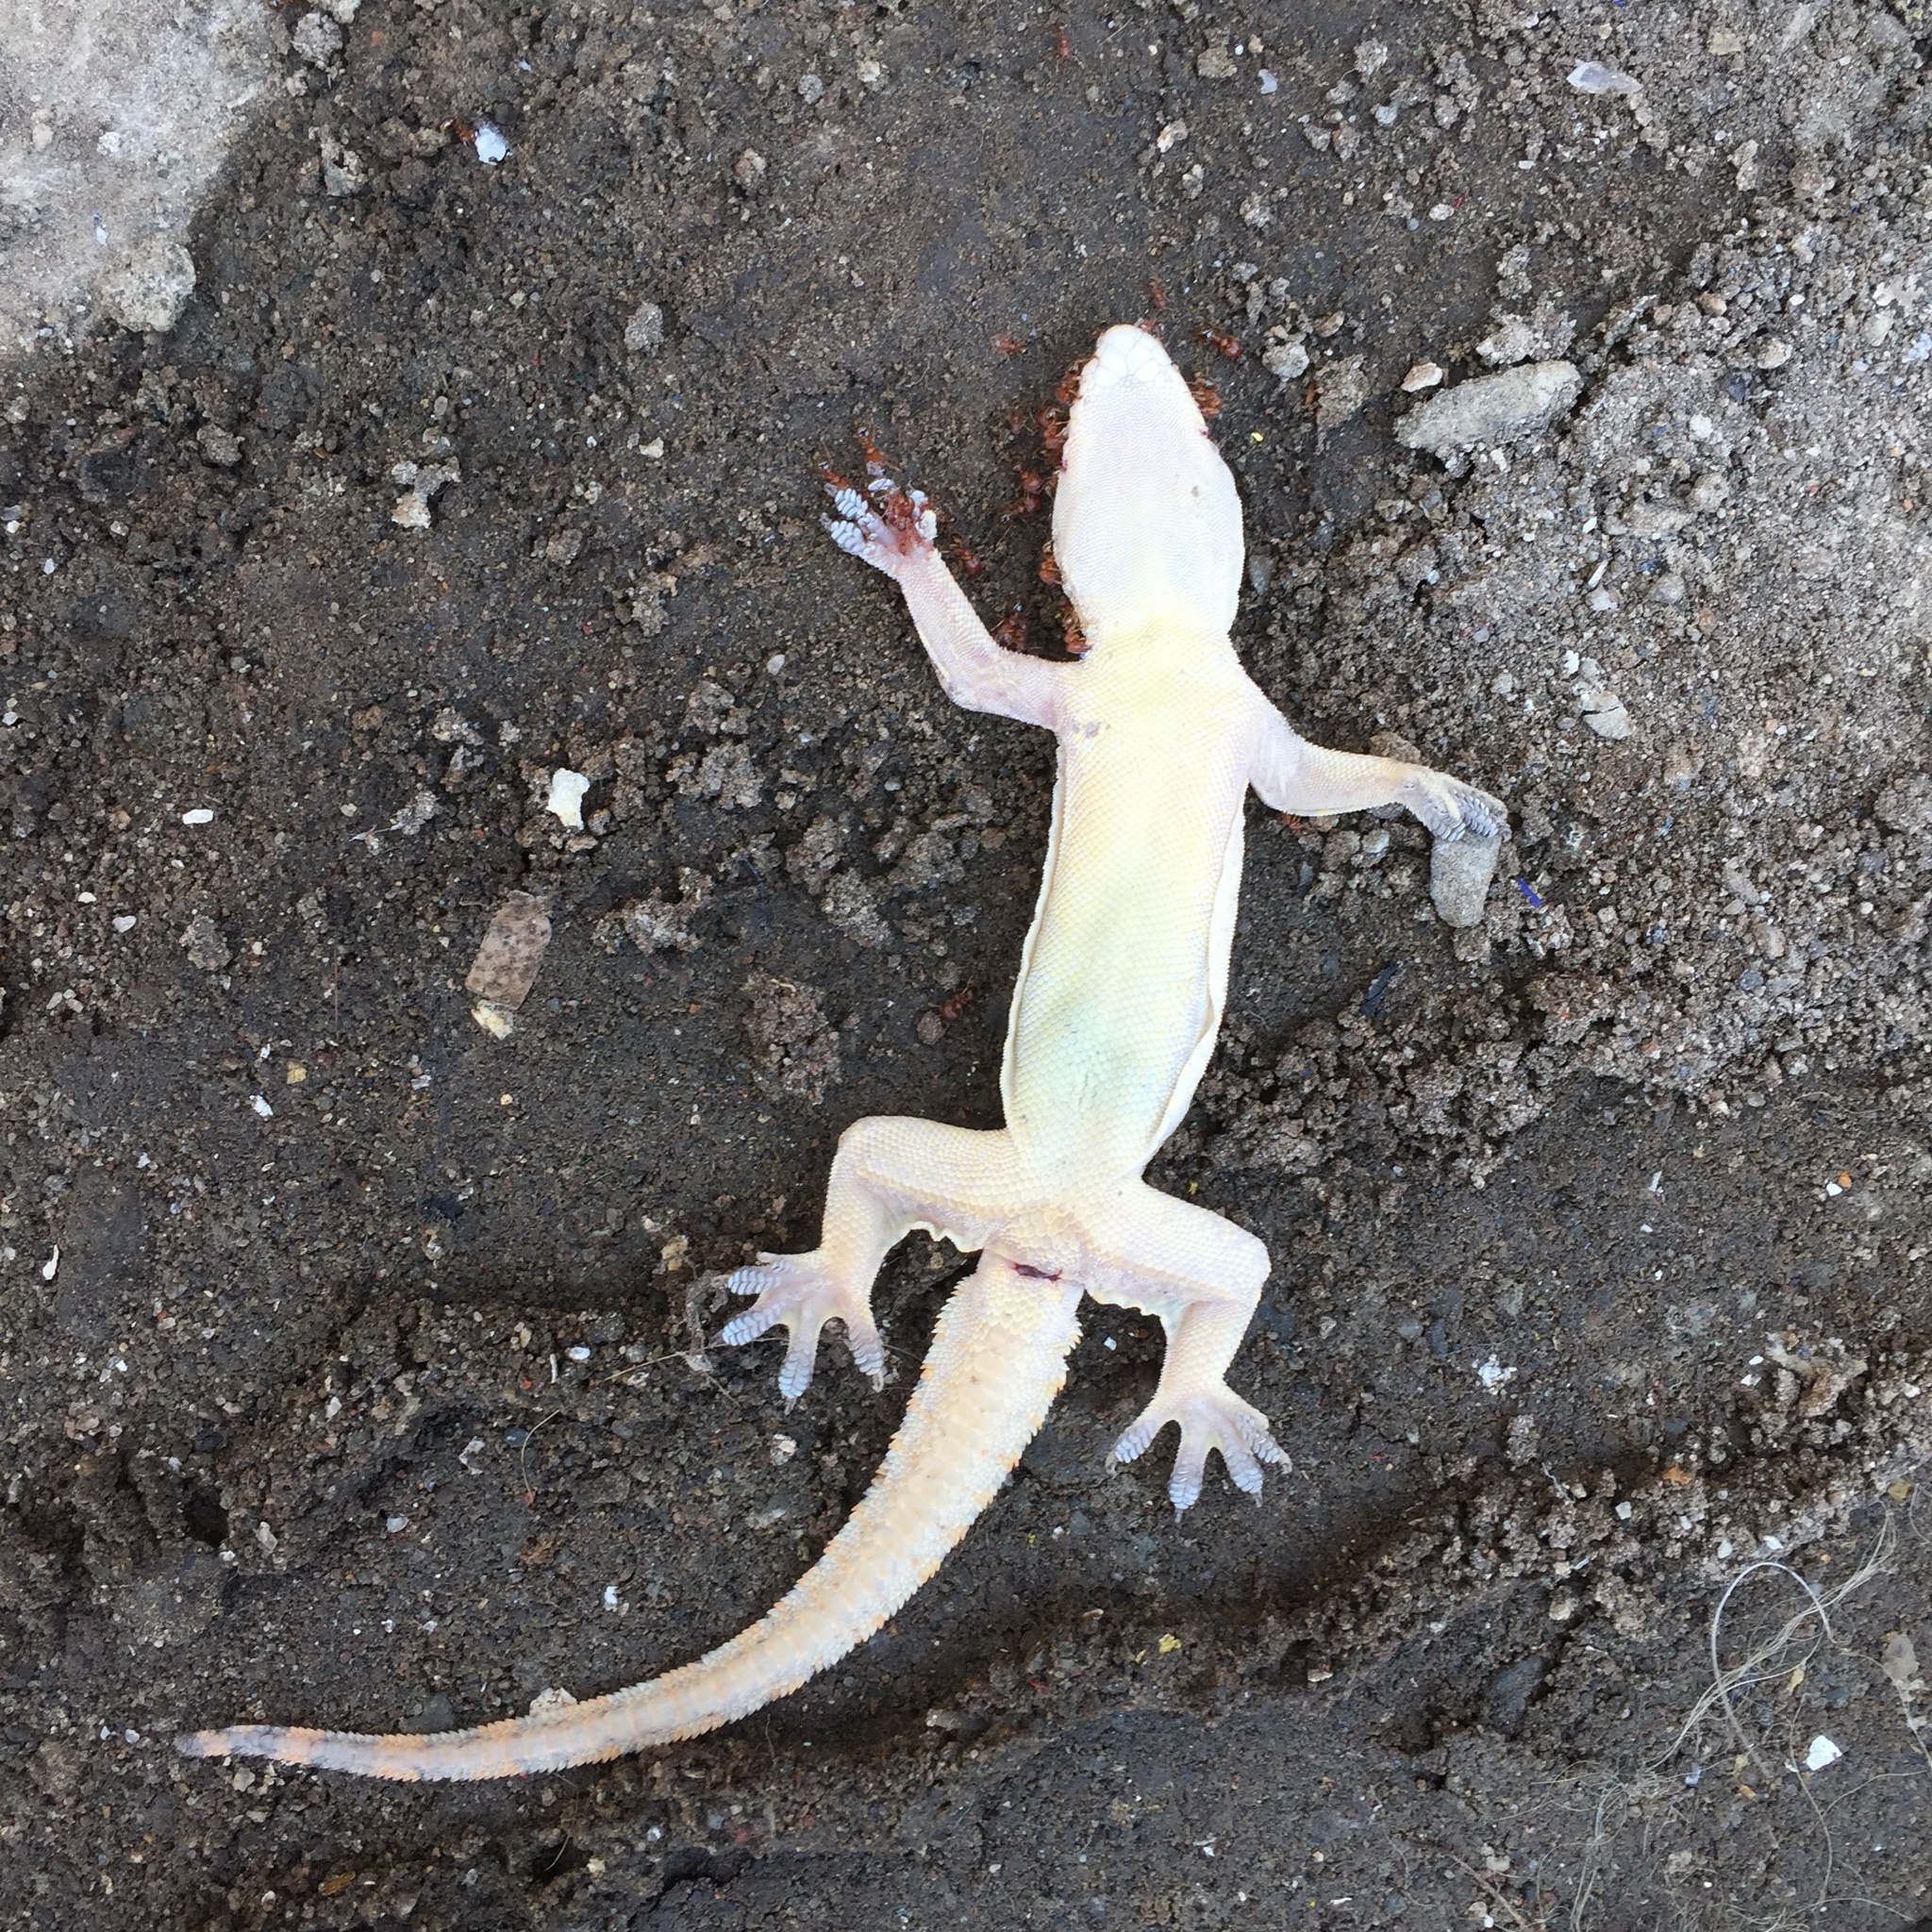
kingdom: Animalia
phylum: Chordata
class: Squamata
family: Gekkonidae
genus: Hemidactylus
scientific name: Hemidactylus platyurus
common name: Flat-tailed house gecko
